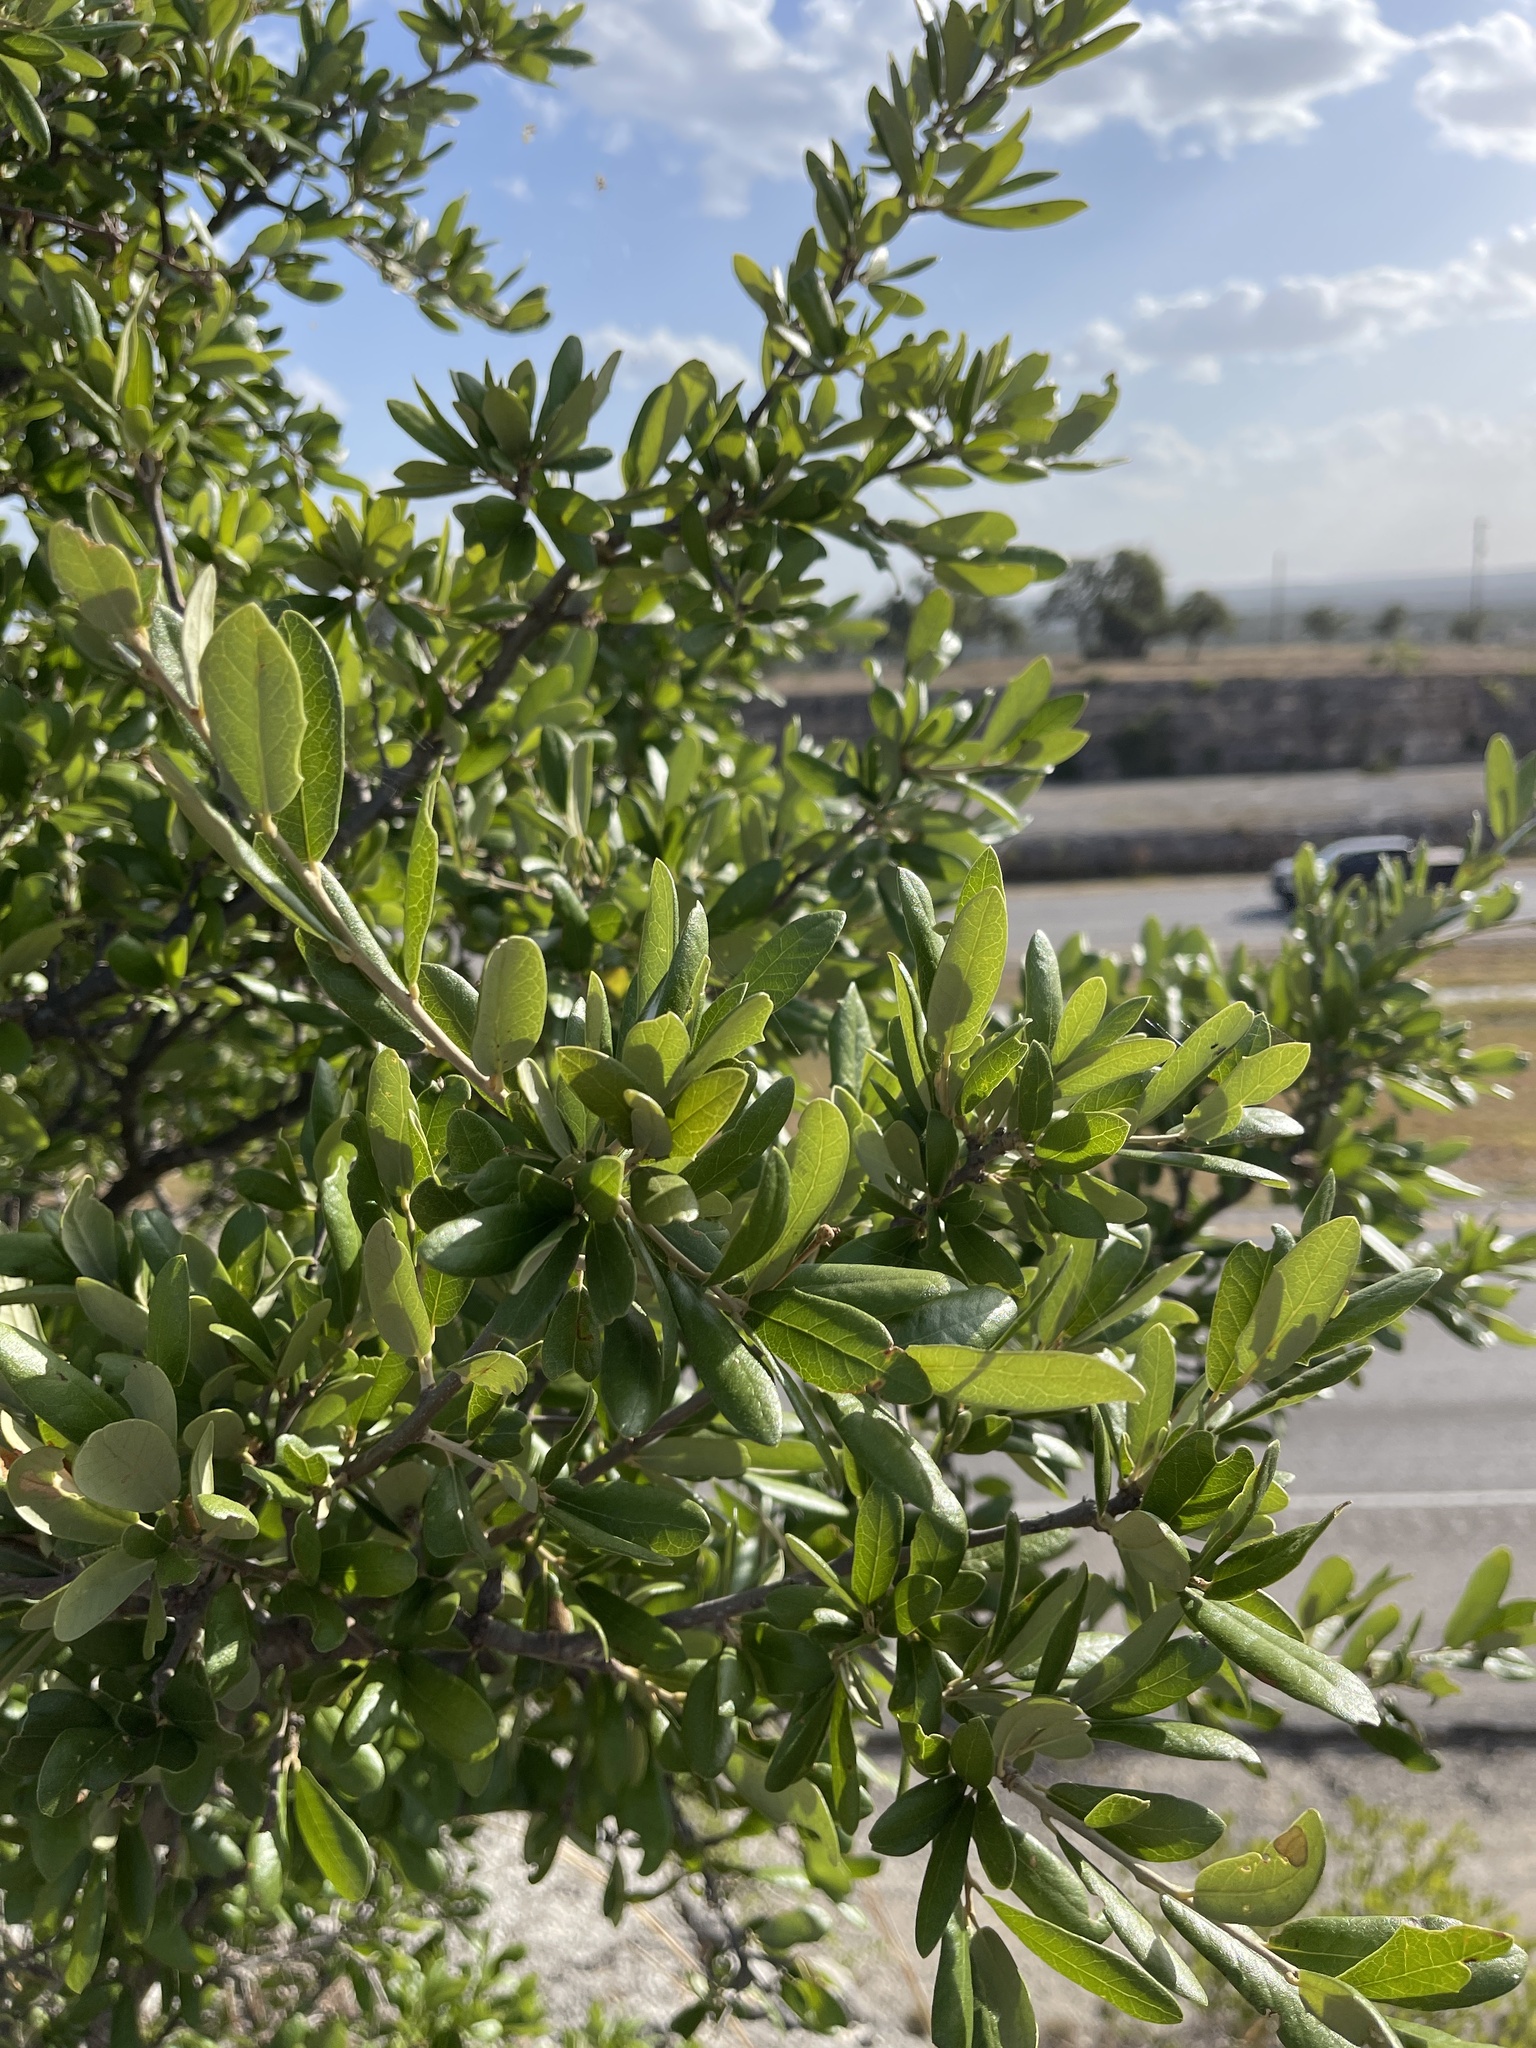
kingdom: Plantae
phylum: Tracheophyta
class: Magnoliopsida
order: Fagales
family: Fagaceae
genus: Quercus
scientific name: Quercus fusiformis
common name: Texas live oak
